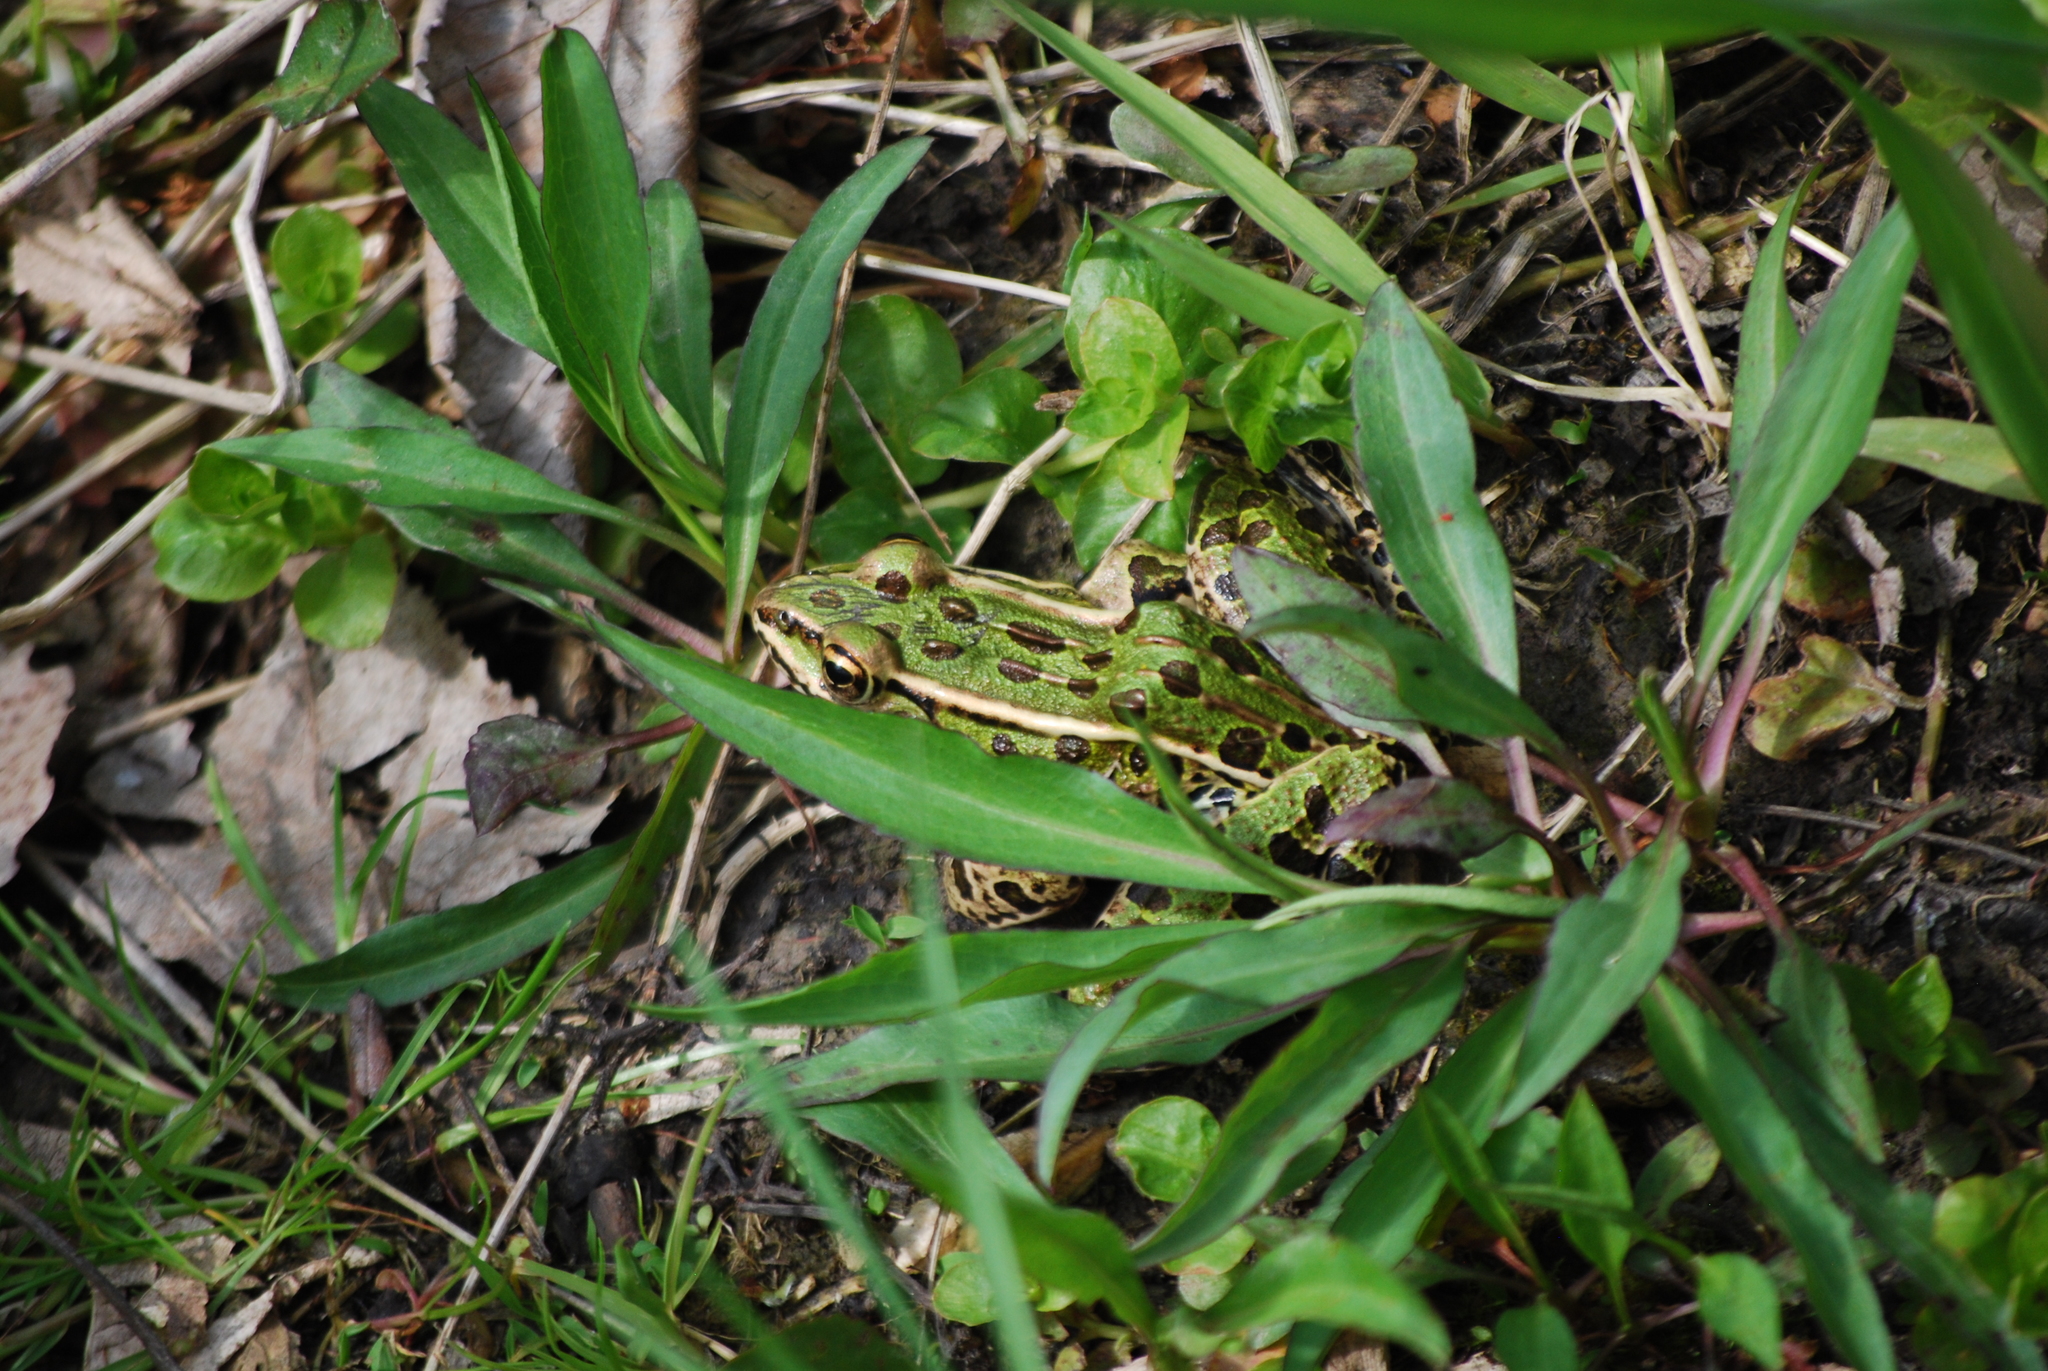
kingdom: Animalia
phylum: Chordata
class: Amphibia
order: Anura
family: Ranidae
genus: Lithobates
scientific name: Lithobates pipiens
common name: Northern leopard frog
